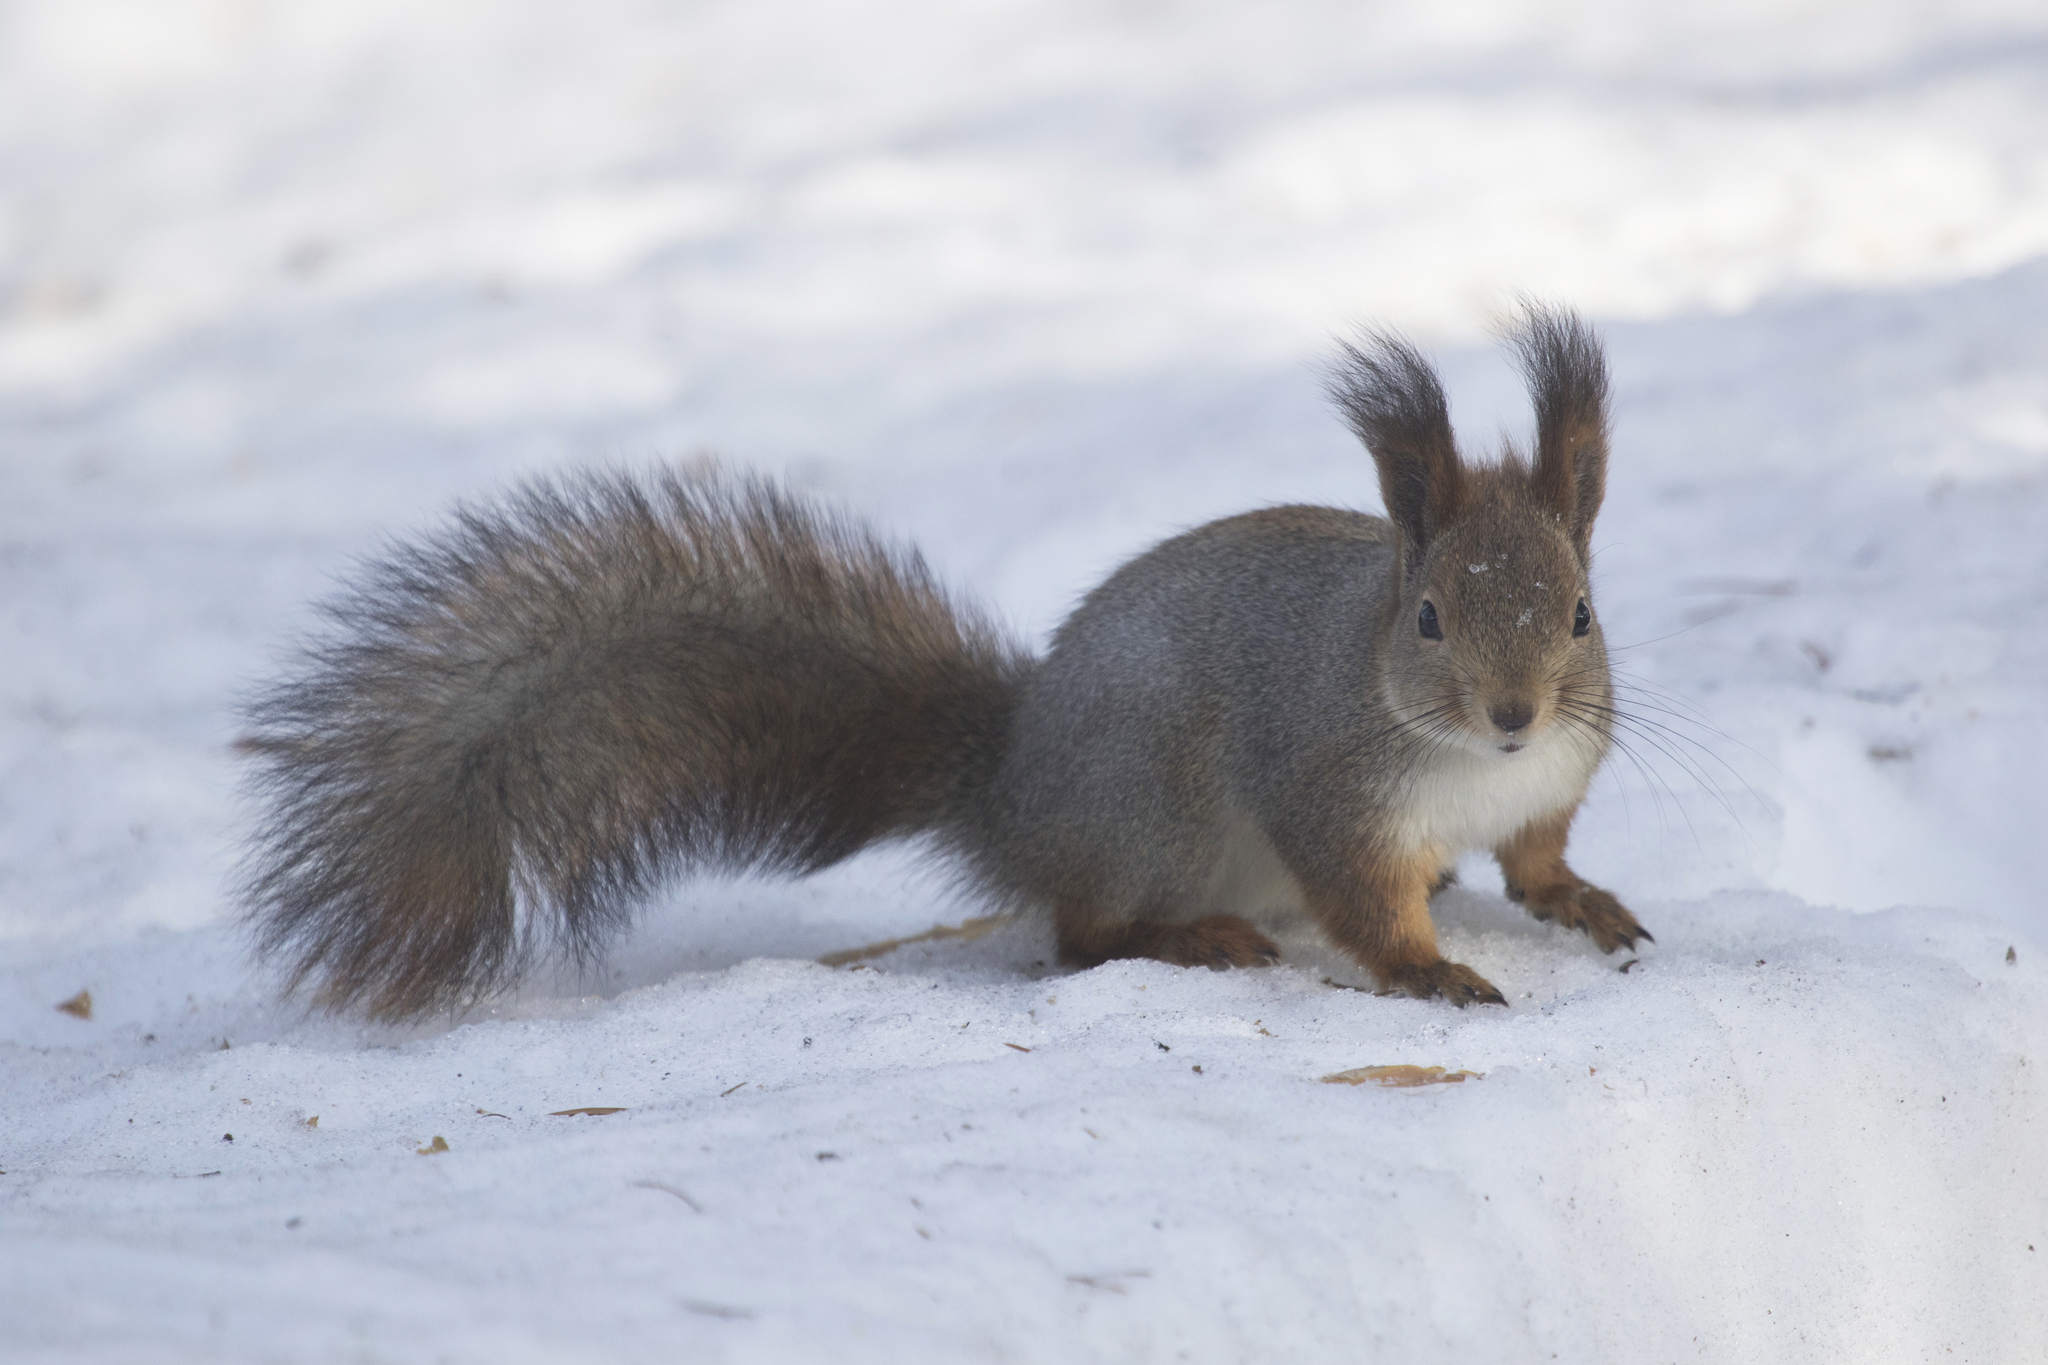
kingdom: Animalia
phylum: Chordata
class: Mammalia
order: Rodentia
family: Sciuridae
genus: Sciurus
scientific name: Sciurus vulgaris
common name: Eurasian red squirrel
